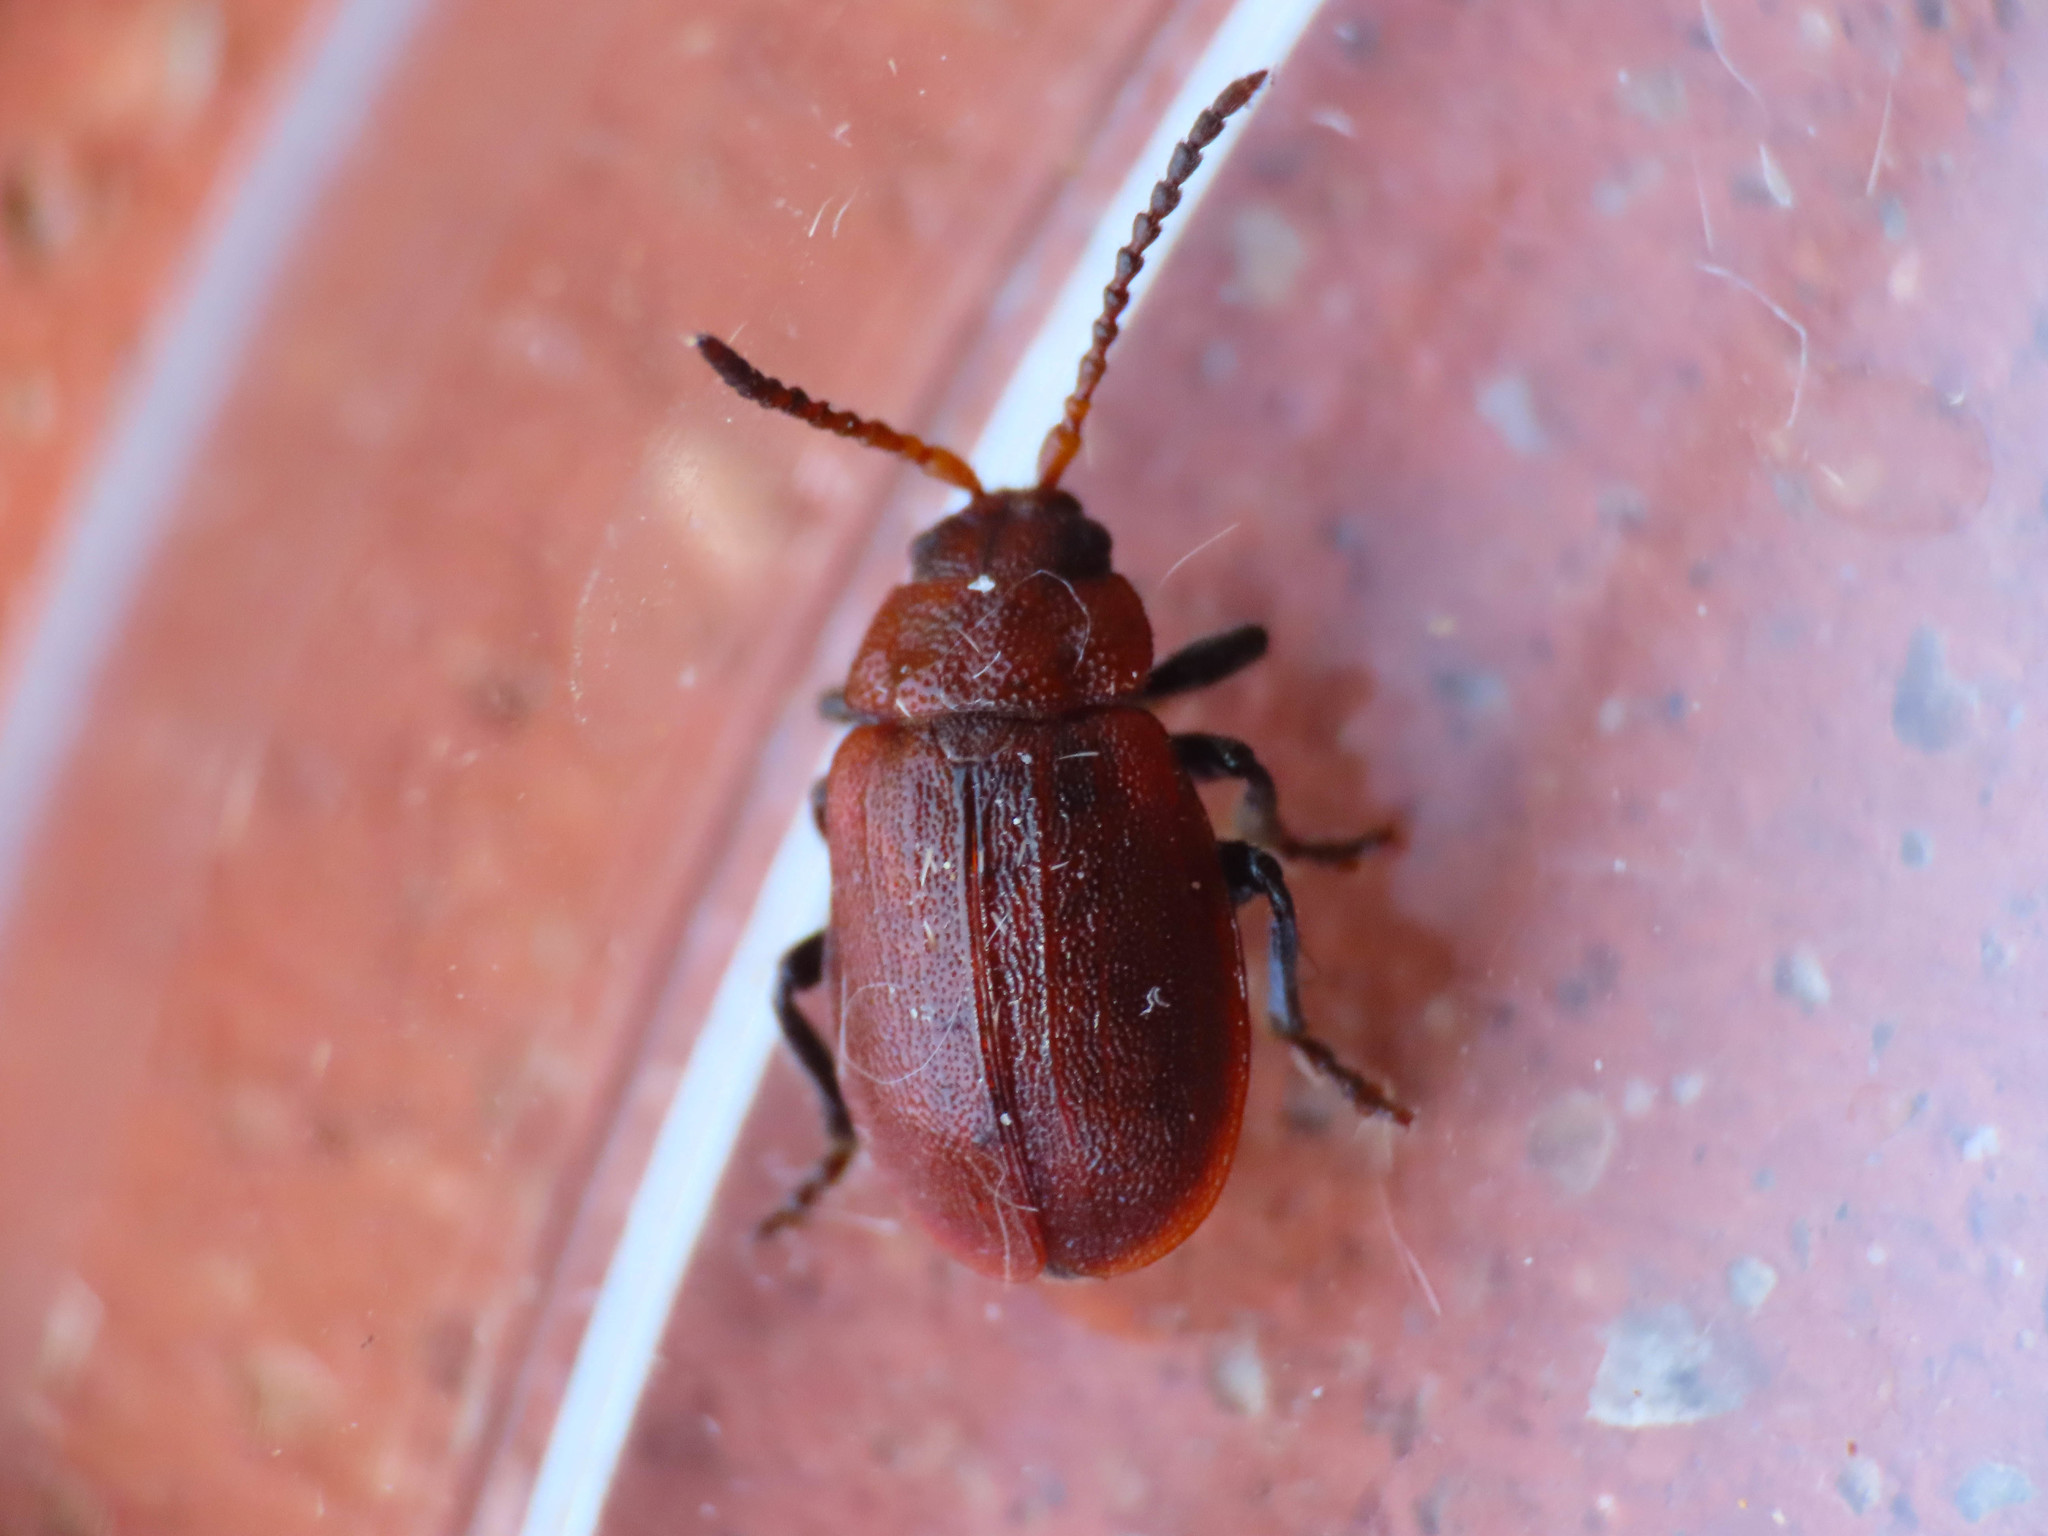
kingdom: Animalia
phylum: Arthropoda
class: Insecta
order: Coleoptera
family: Chrysomelidae
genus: Emarhopa
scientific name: Emarhopa rufa
